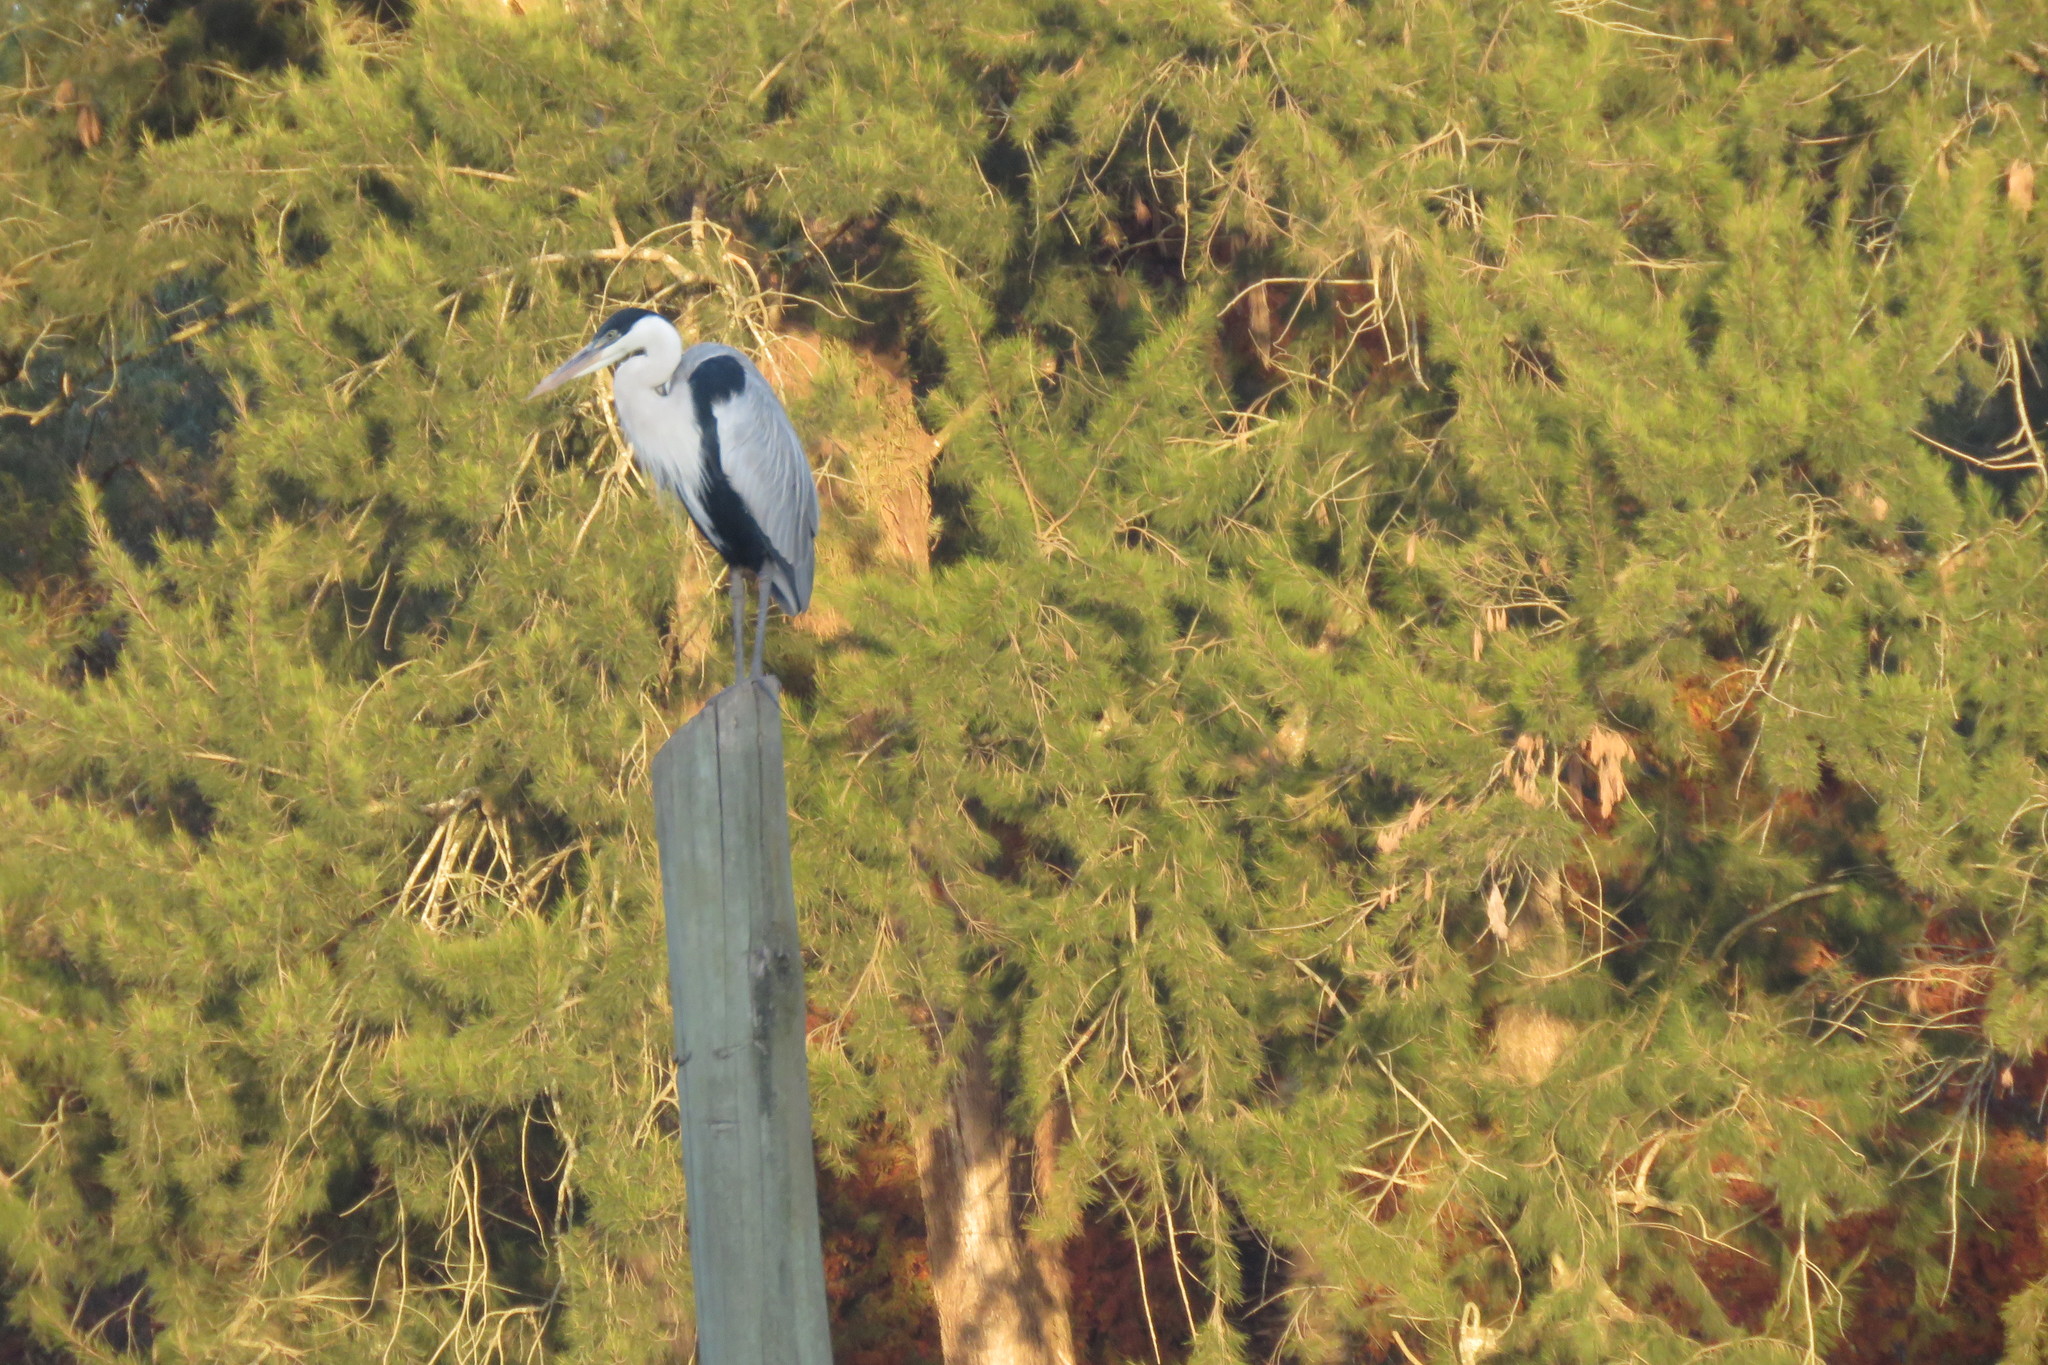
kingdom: Animalia
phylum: Chordata
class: Aves
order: Pelecaniformes
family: Ardeidae
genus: Ardea
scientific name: Ardea cocoi
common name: Cocoi heron
